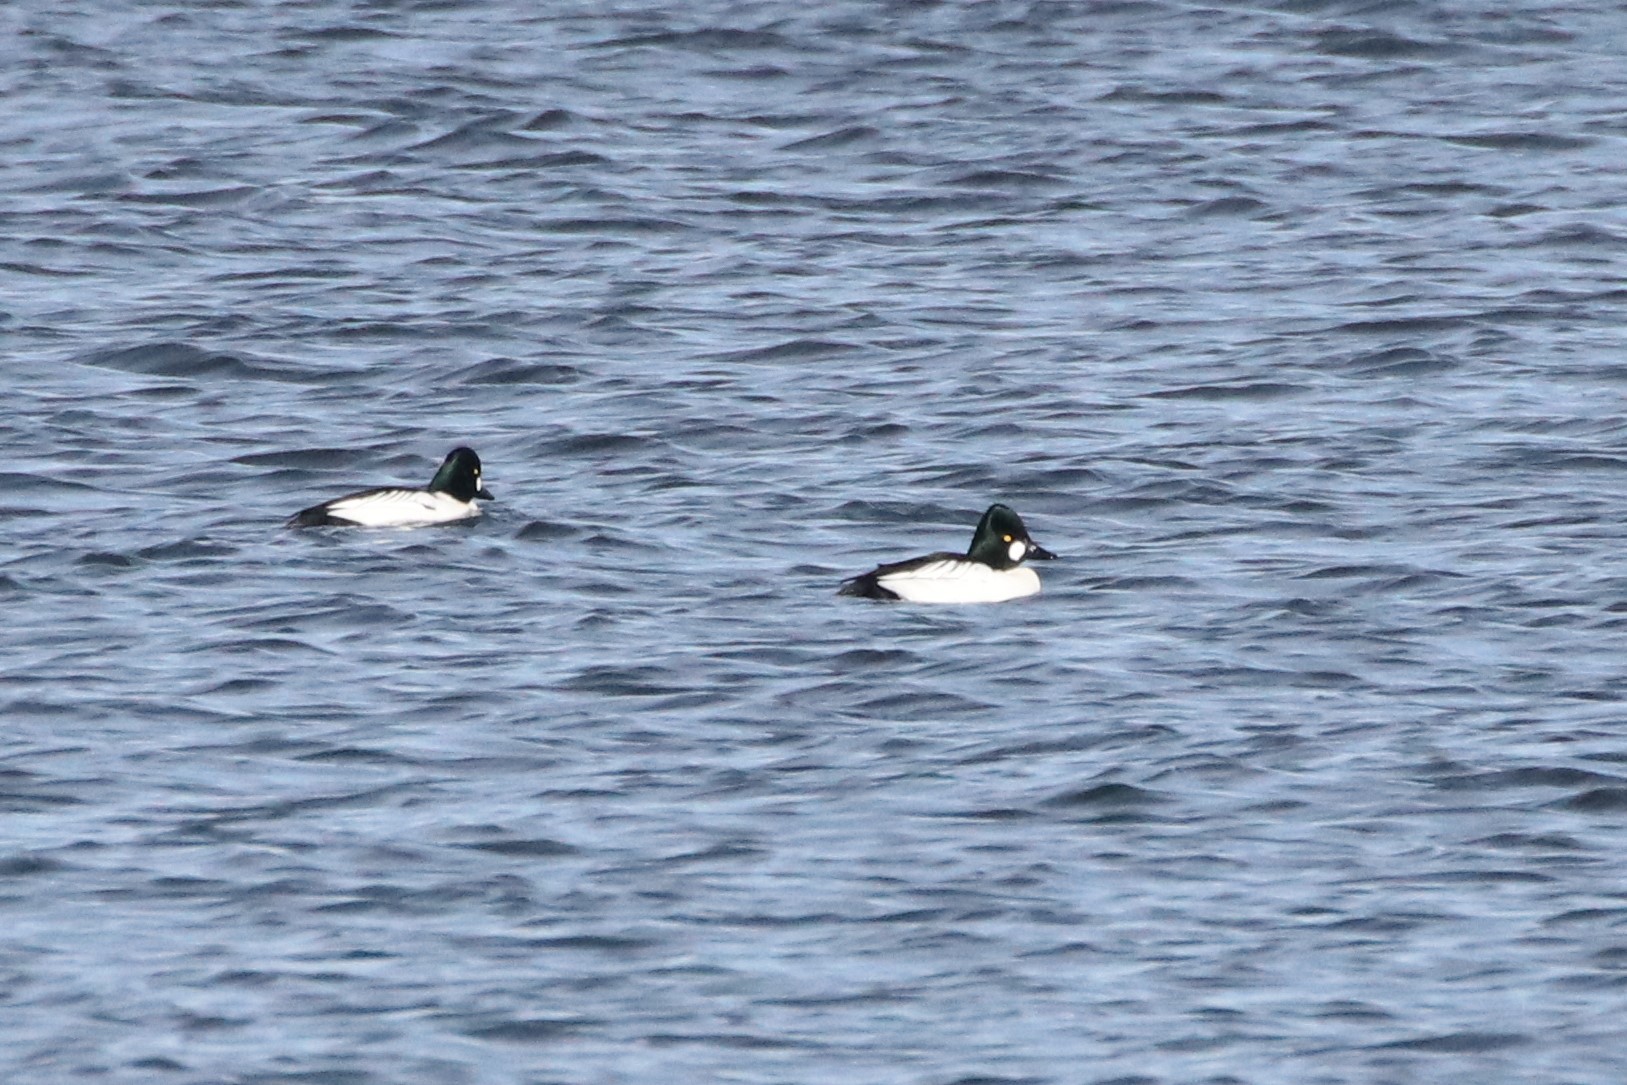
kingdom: Animalia
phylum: Chordata
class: Aves
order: Anseriformes
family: Anatidae
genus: Bucephala
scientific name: Bucephala clangula
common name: Common goldeneye
